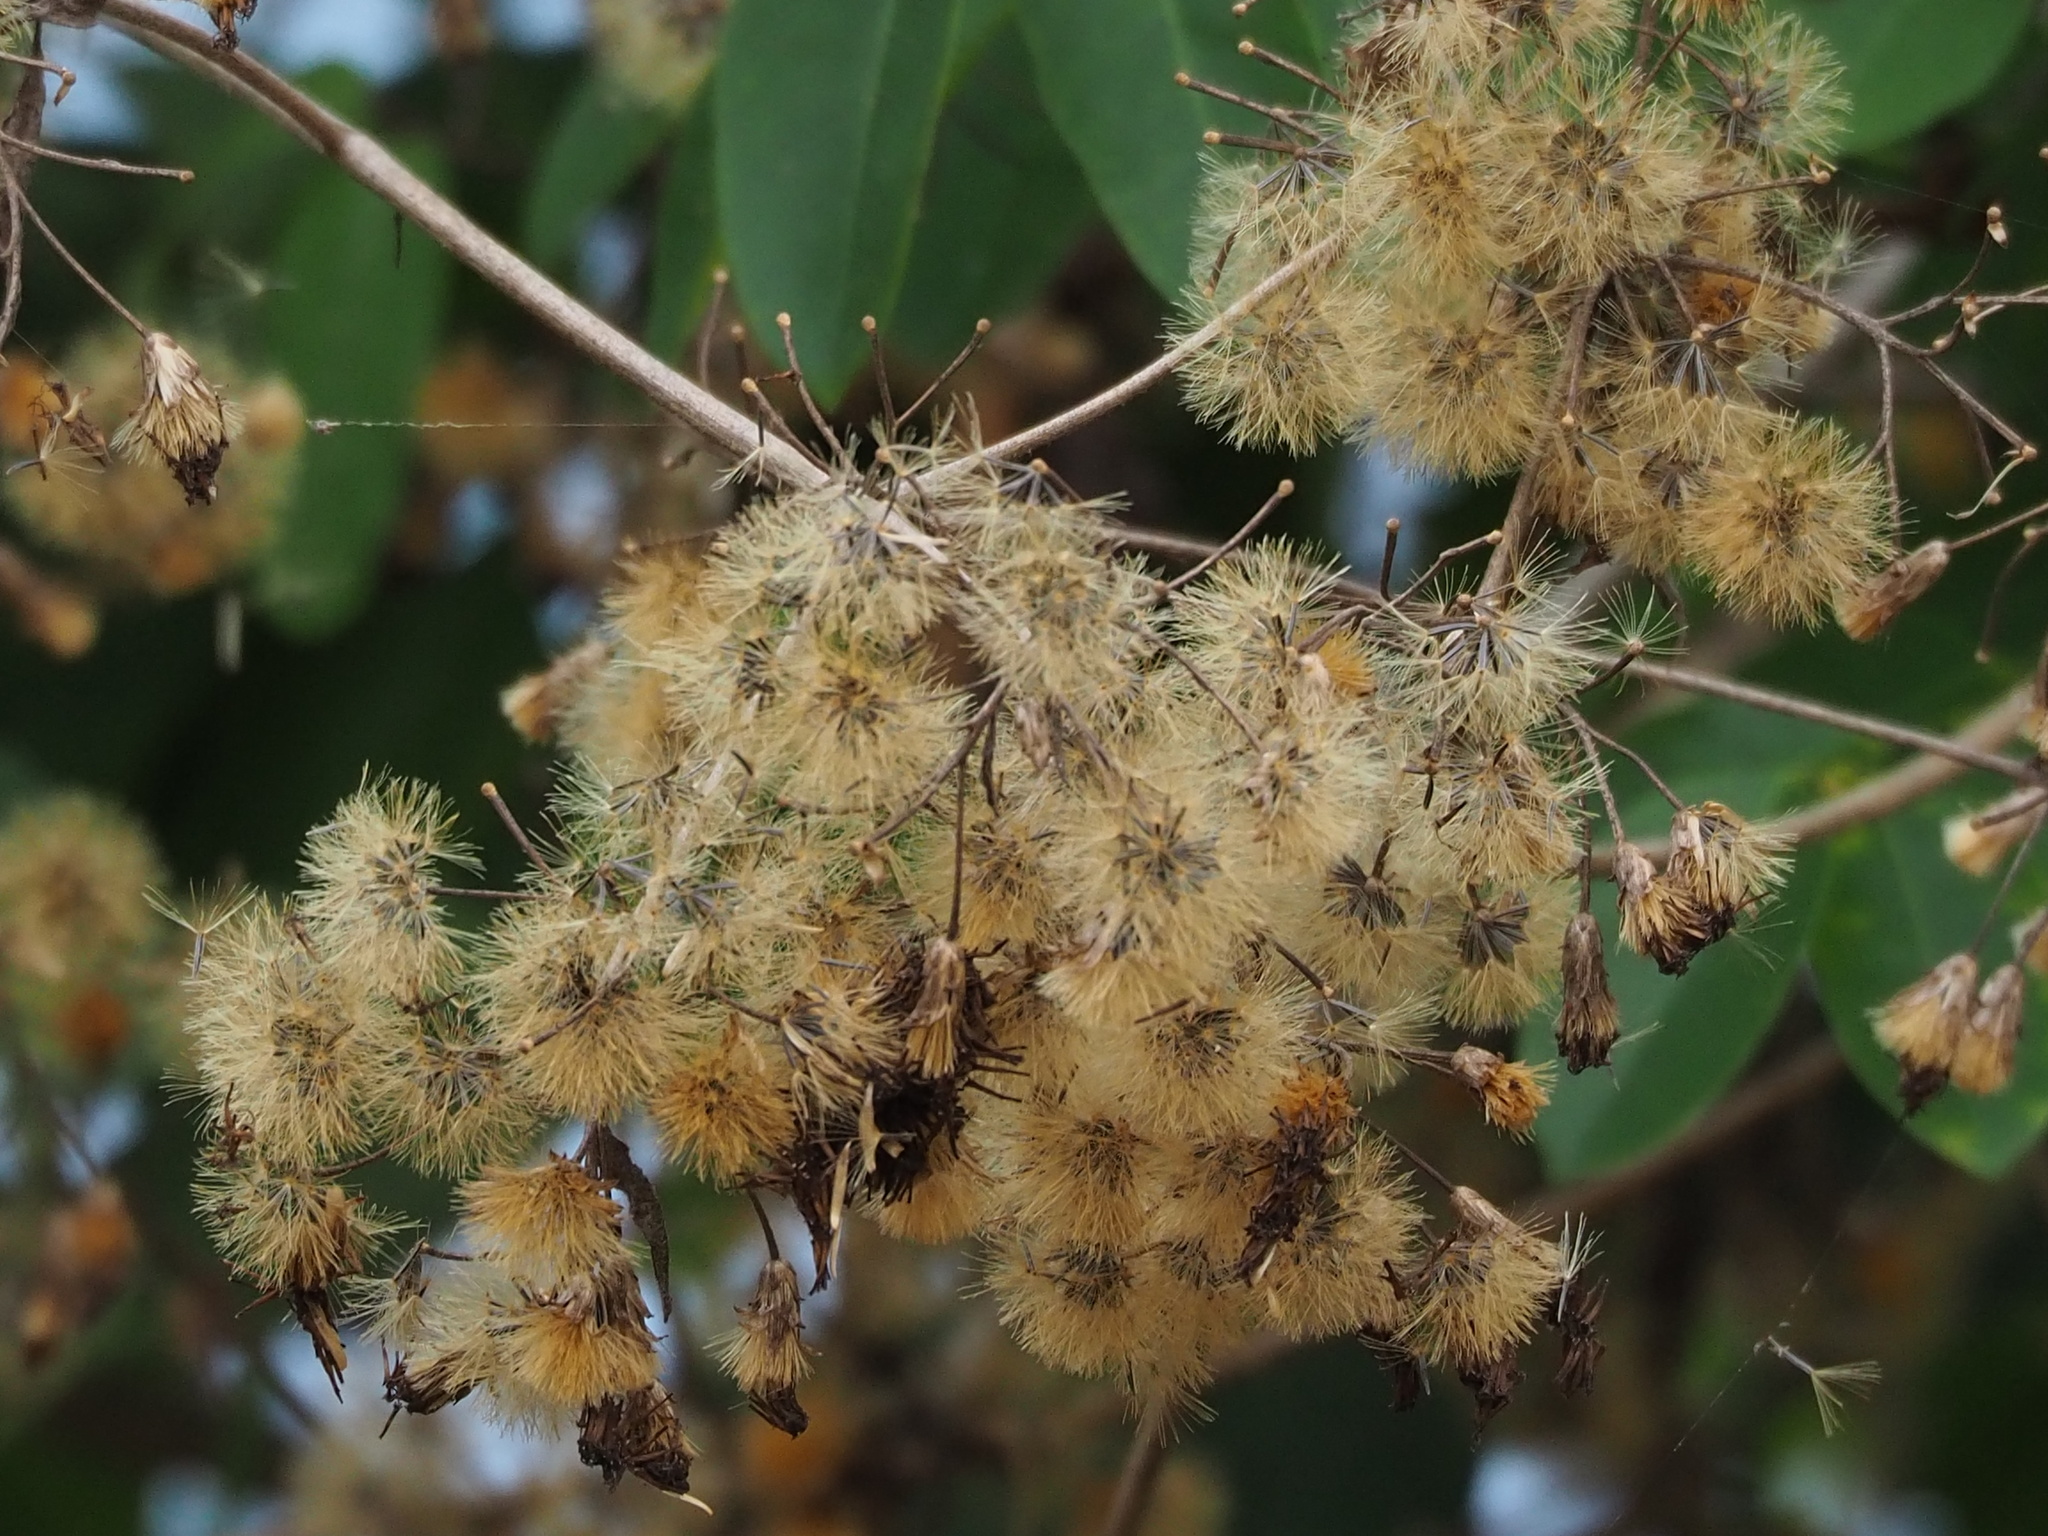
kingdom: Plantae
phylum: Tracheophyta
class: Magnoliopsida
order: Asterales
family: Asteraceae
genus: Chromolaena
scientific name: Chromolaena odorata
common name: Siamweed
